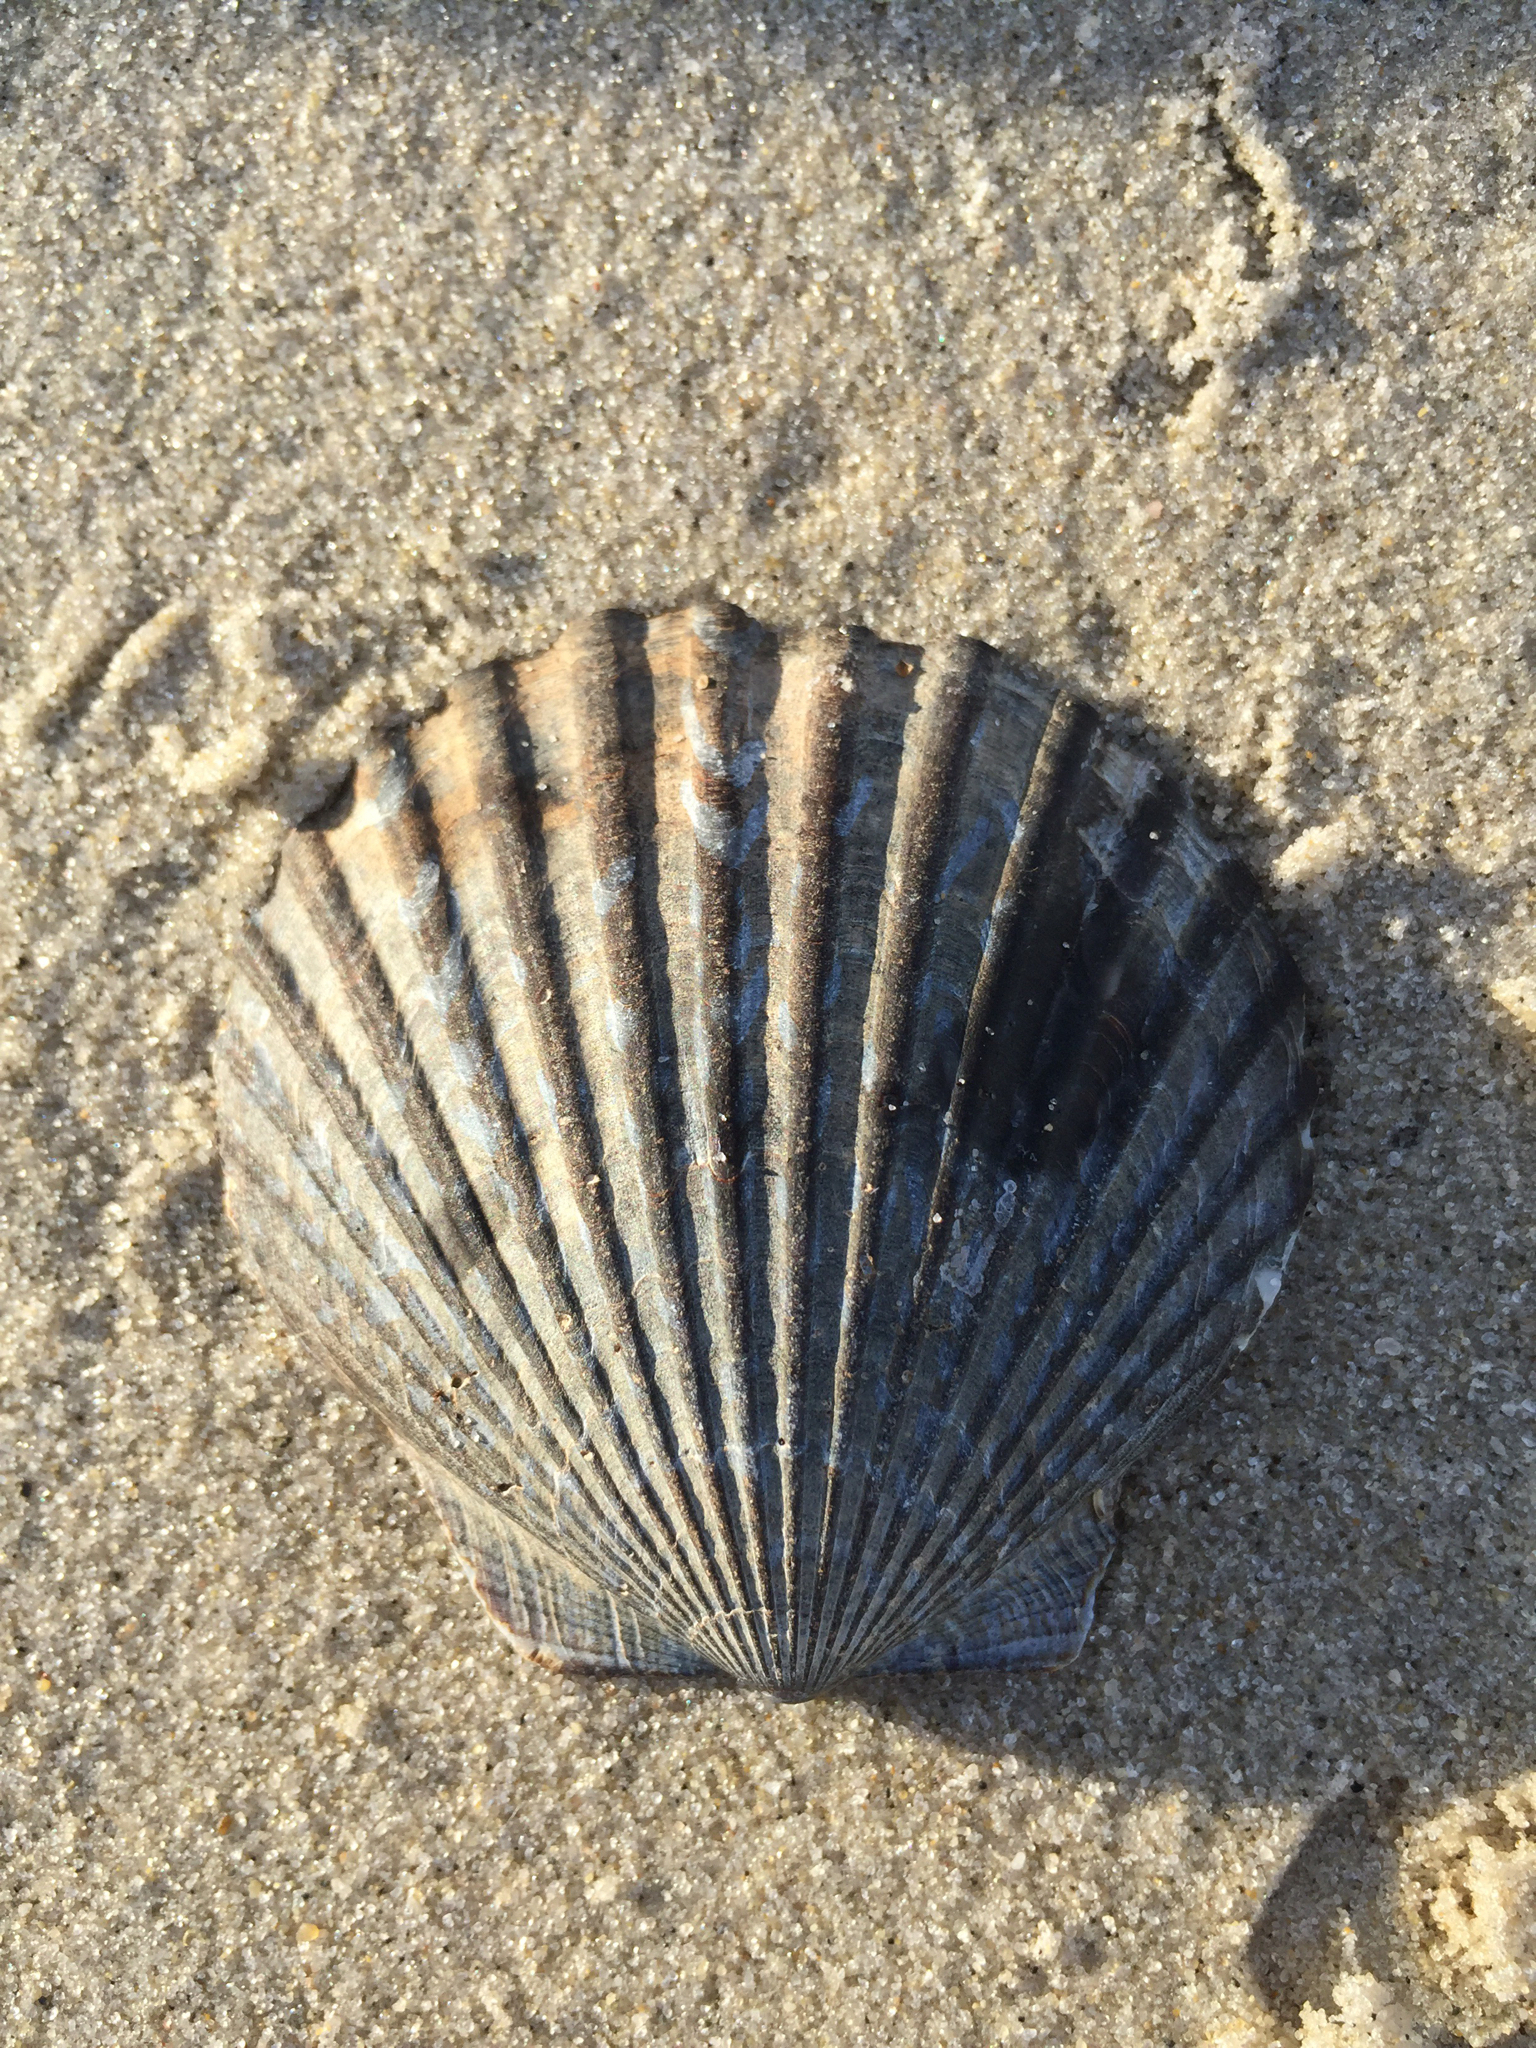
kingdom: Animalia
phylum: Mollusca
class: Bivalvia
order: Pectinida
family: Pectinidae
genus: Argopecten
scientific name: Argopecten irradians
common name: Atlantic bay scallop
